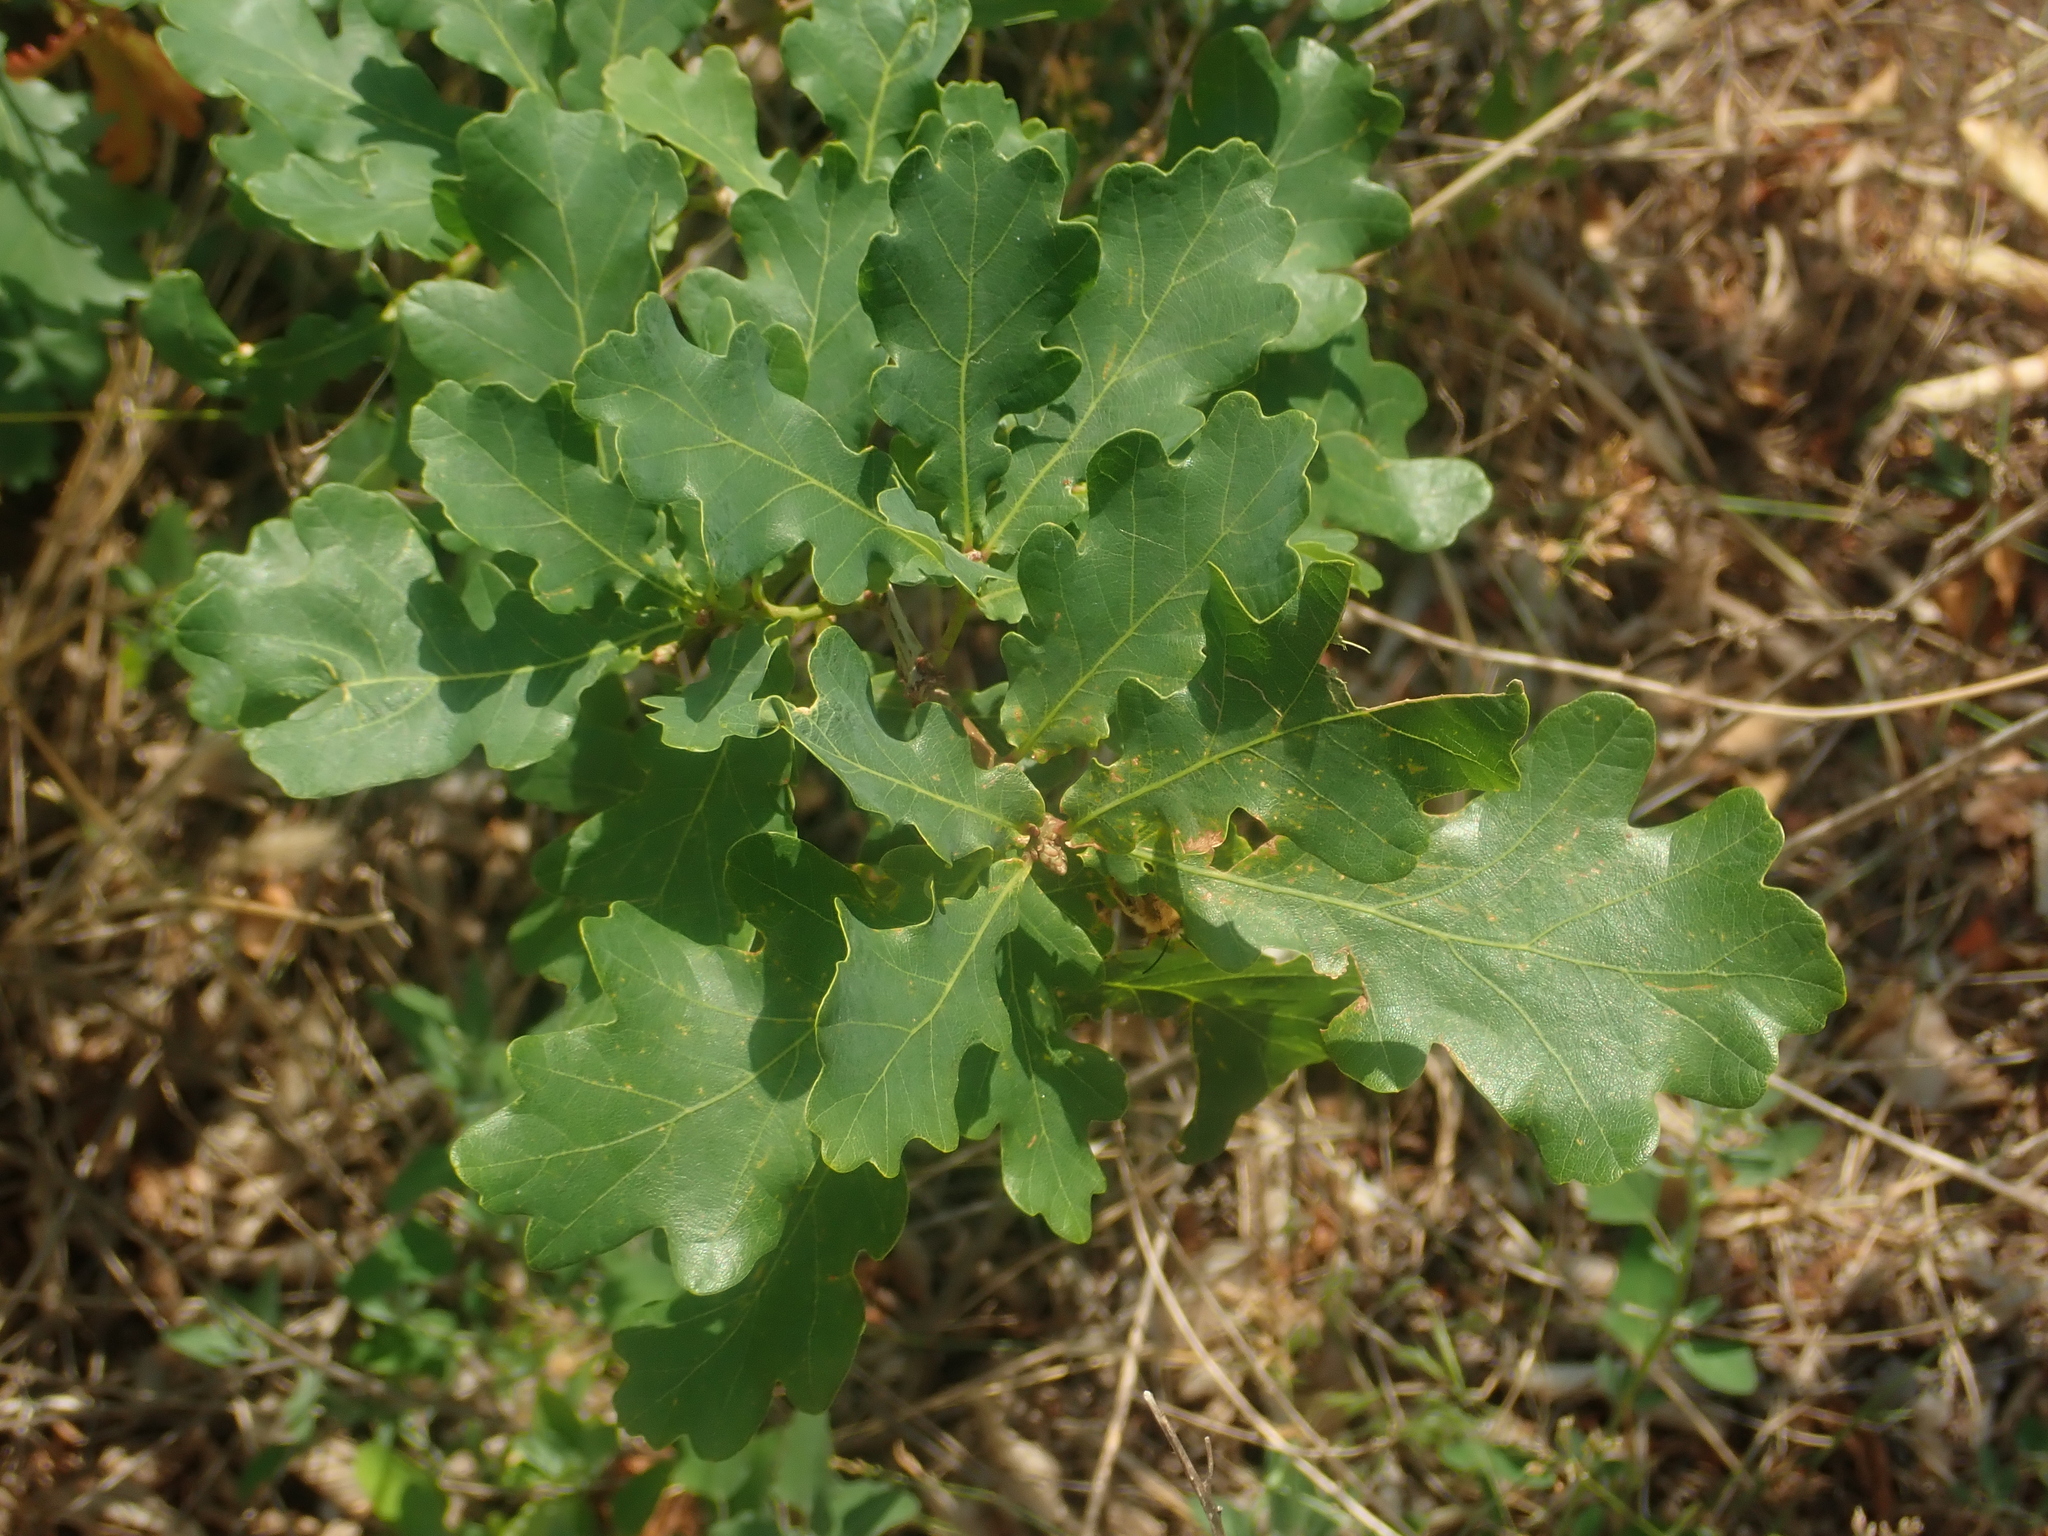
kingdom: Plantae
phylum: Tracheophyta
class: Magnoliopsida
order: Fagales
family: Fagaceae
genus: Quercus
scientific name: Quercus robur
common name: Pedunculate oak
